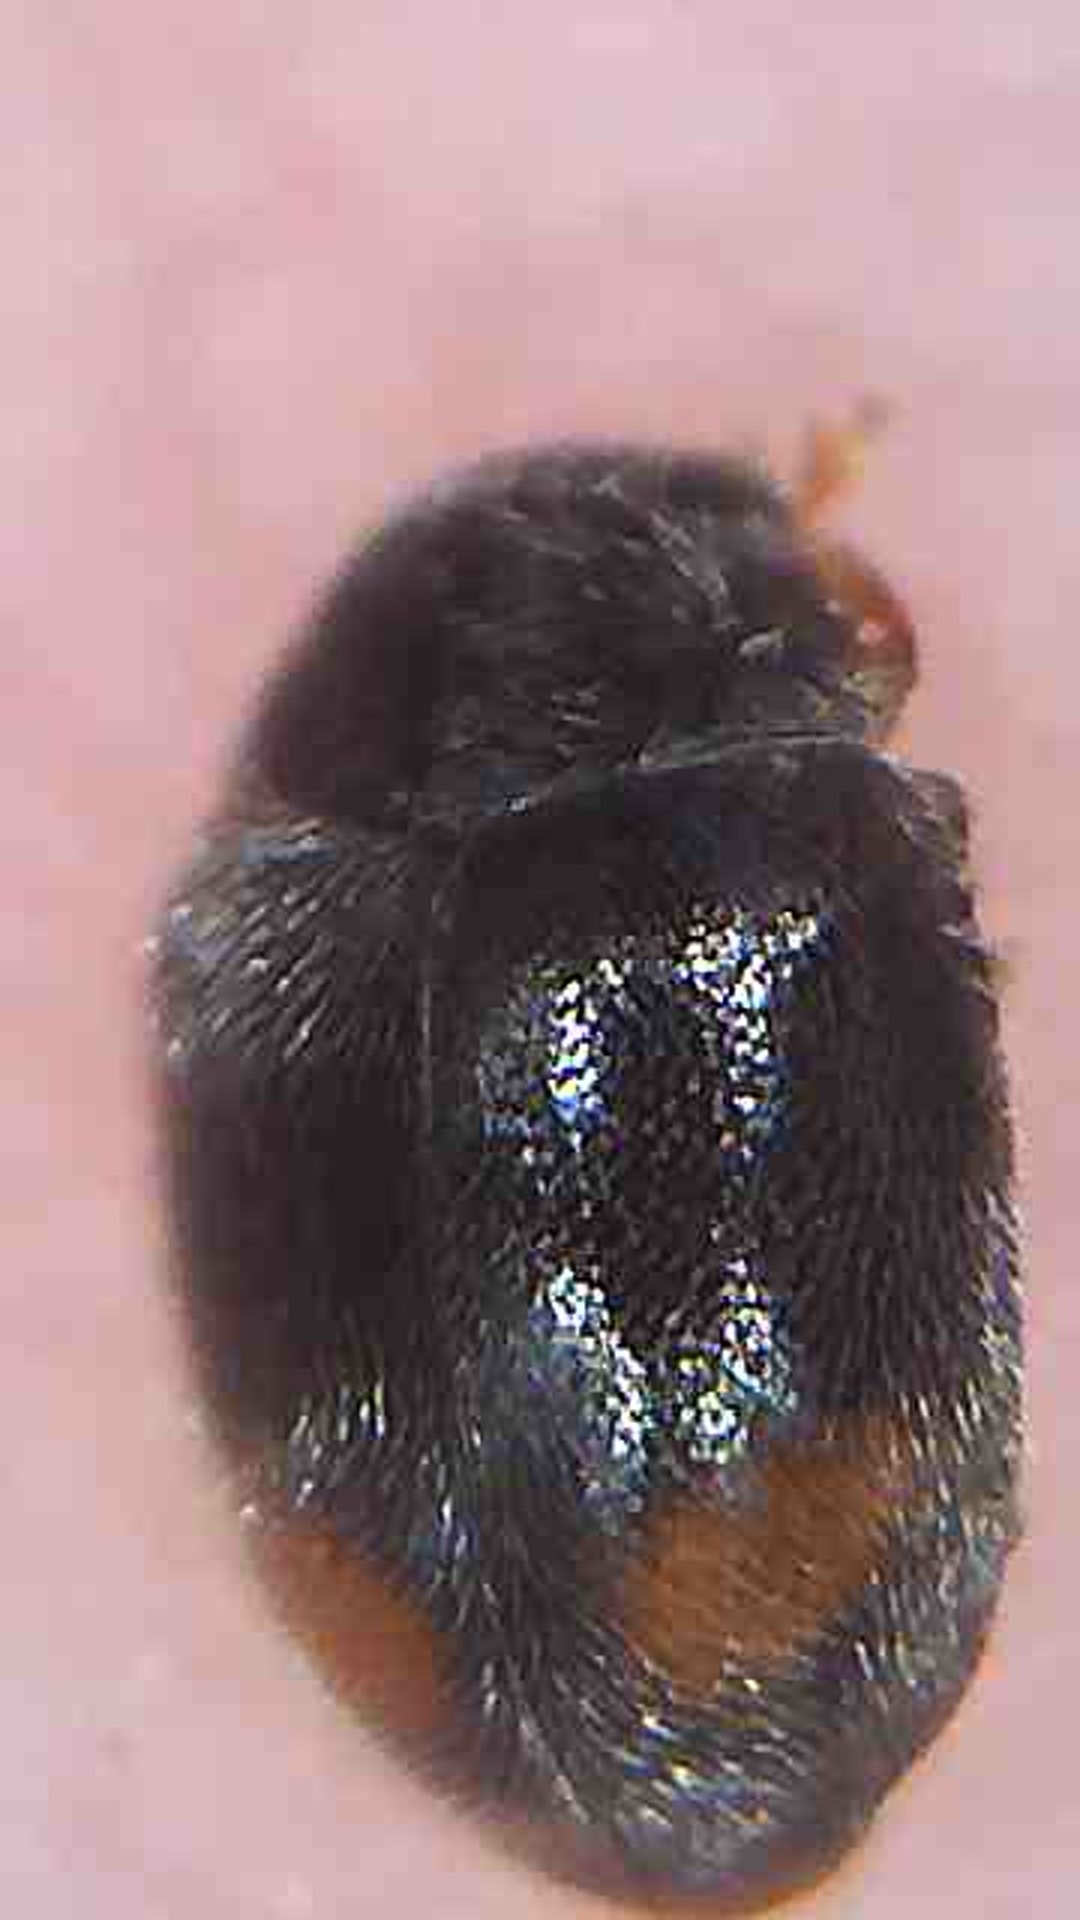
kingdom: Animalia
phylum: Arthropoda
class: Insecta
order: Coleoptera
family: Coccinellidae
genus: Nephus
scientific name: Nephus binaevatus
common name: Ladybird beetle
